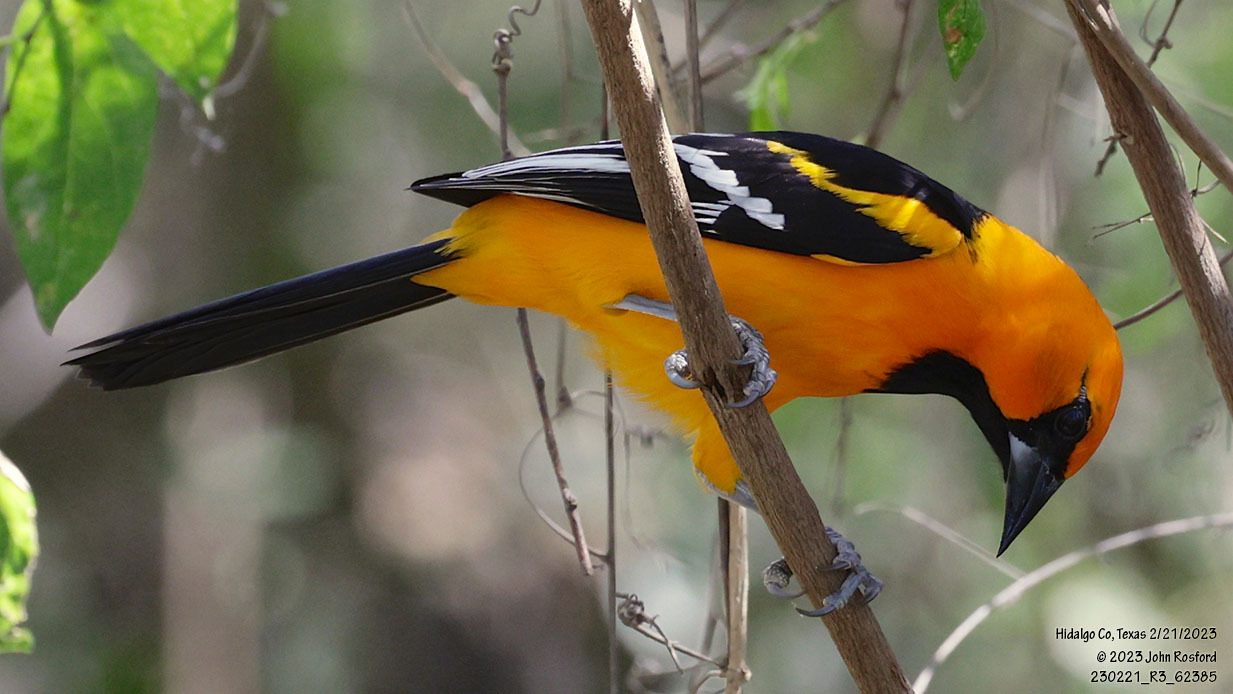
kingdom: Animalia
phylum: Chordata
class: Aves
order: Passeriformes
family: Icteridae
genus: Icterus
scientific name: Icterus gularis
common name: Altamira oriole
